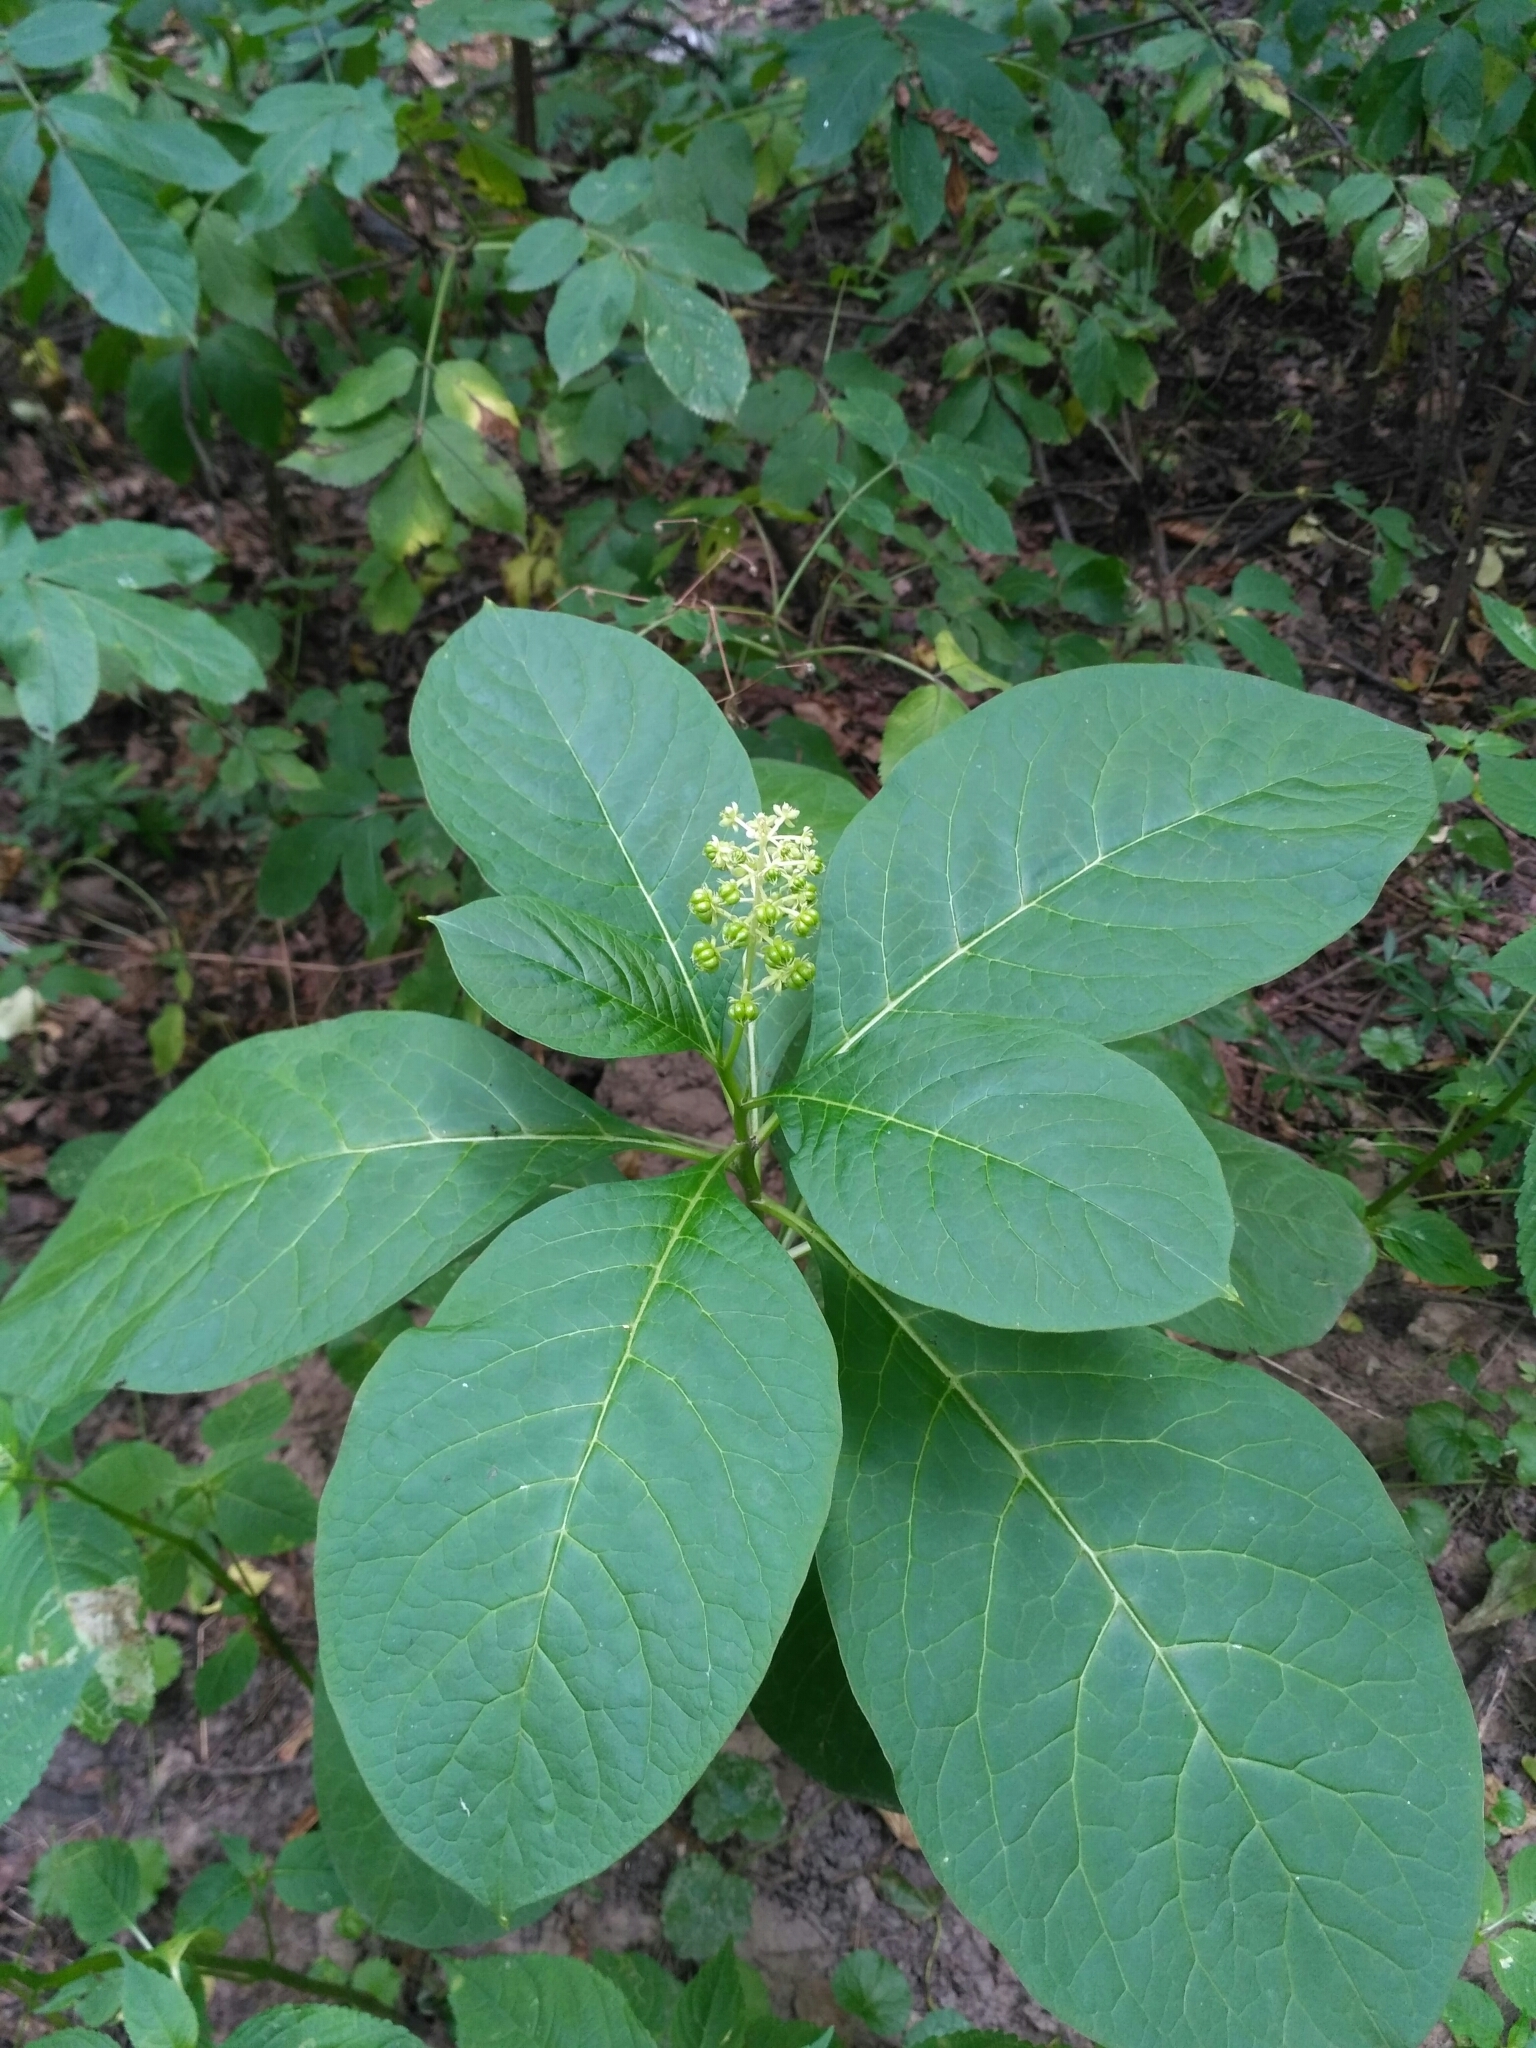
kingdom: Plantae
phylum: Tracheophyta
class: Magnoliopsida
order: Caryophyllales
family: Phytolaccaceae
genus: Phytolacca
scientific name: Phytolacca acinosa
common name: Indian pokeweed
